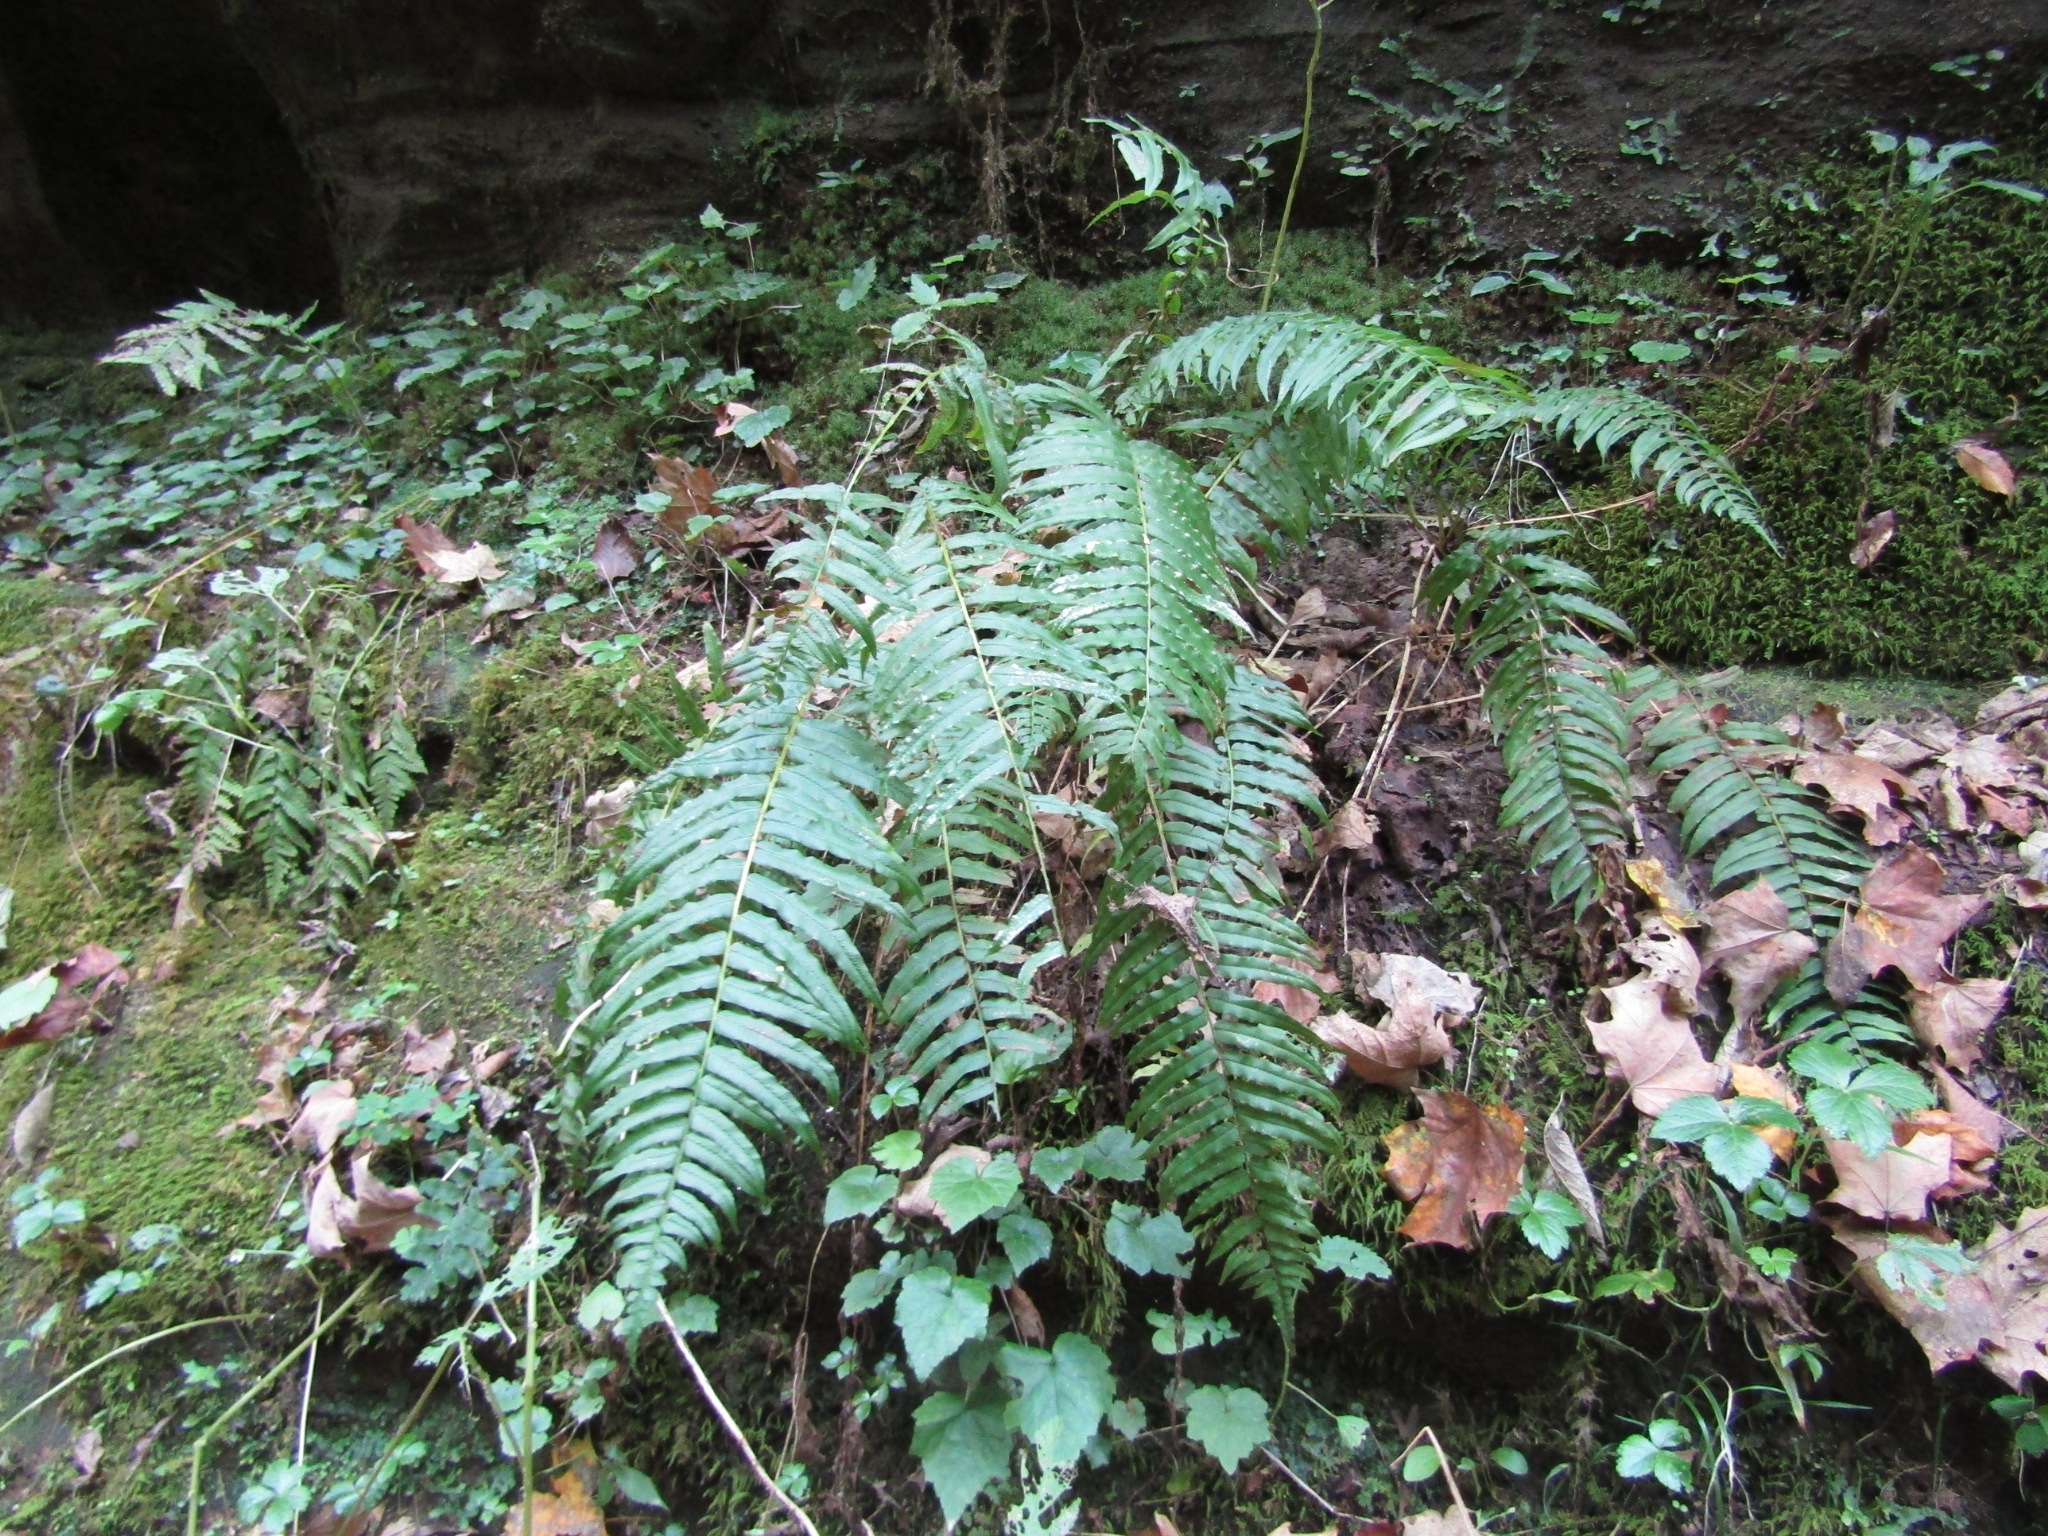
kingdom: Plantae
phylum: Tracheophyta
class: Polypodiopsida
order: Polypodiales
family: Diplaziopsidaceae
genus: Homalosorus
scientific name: Homalosorus pycnocarpos
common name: Glade fern
